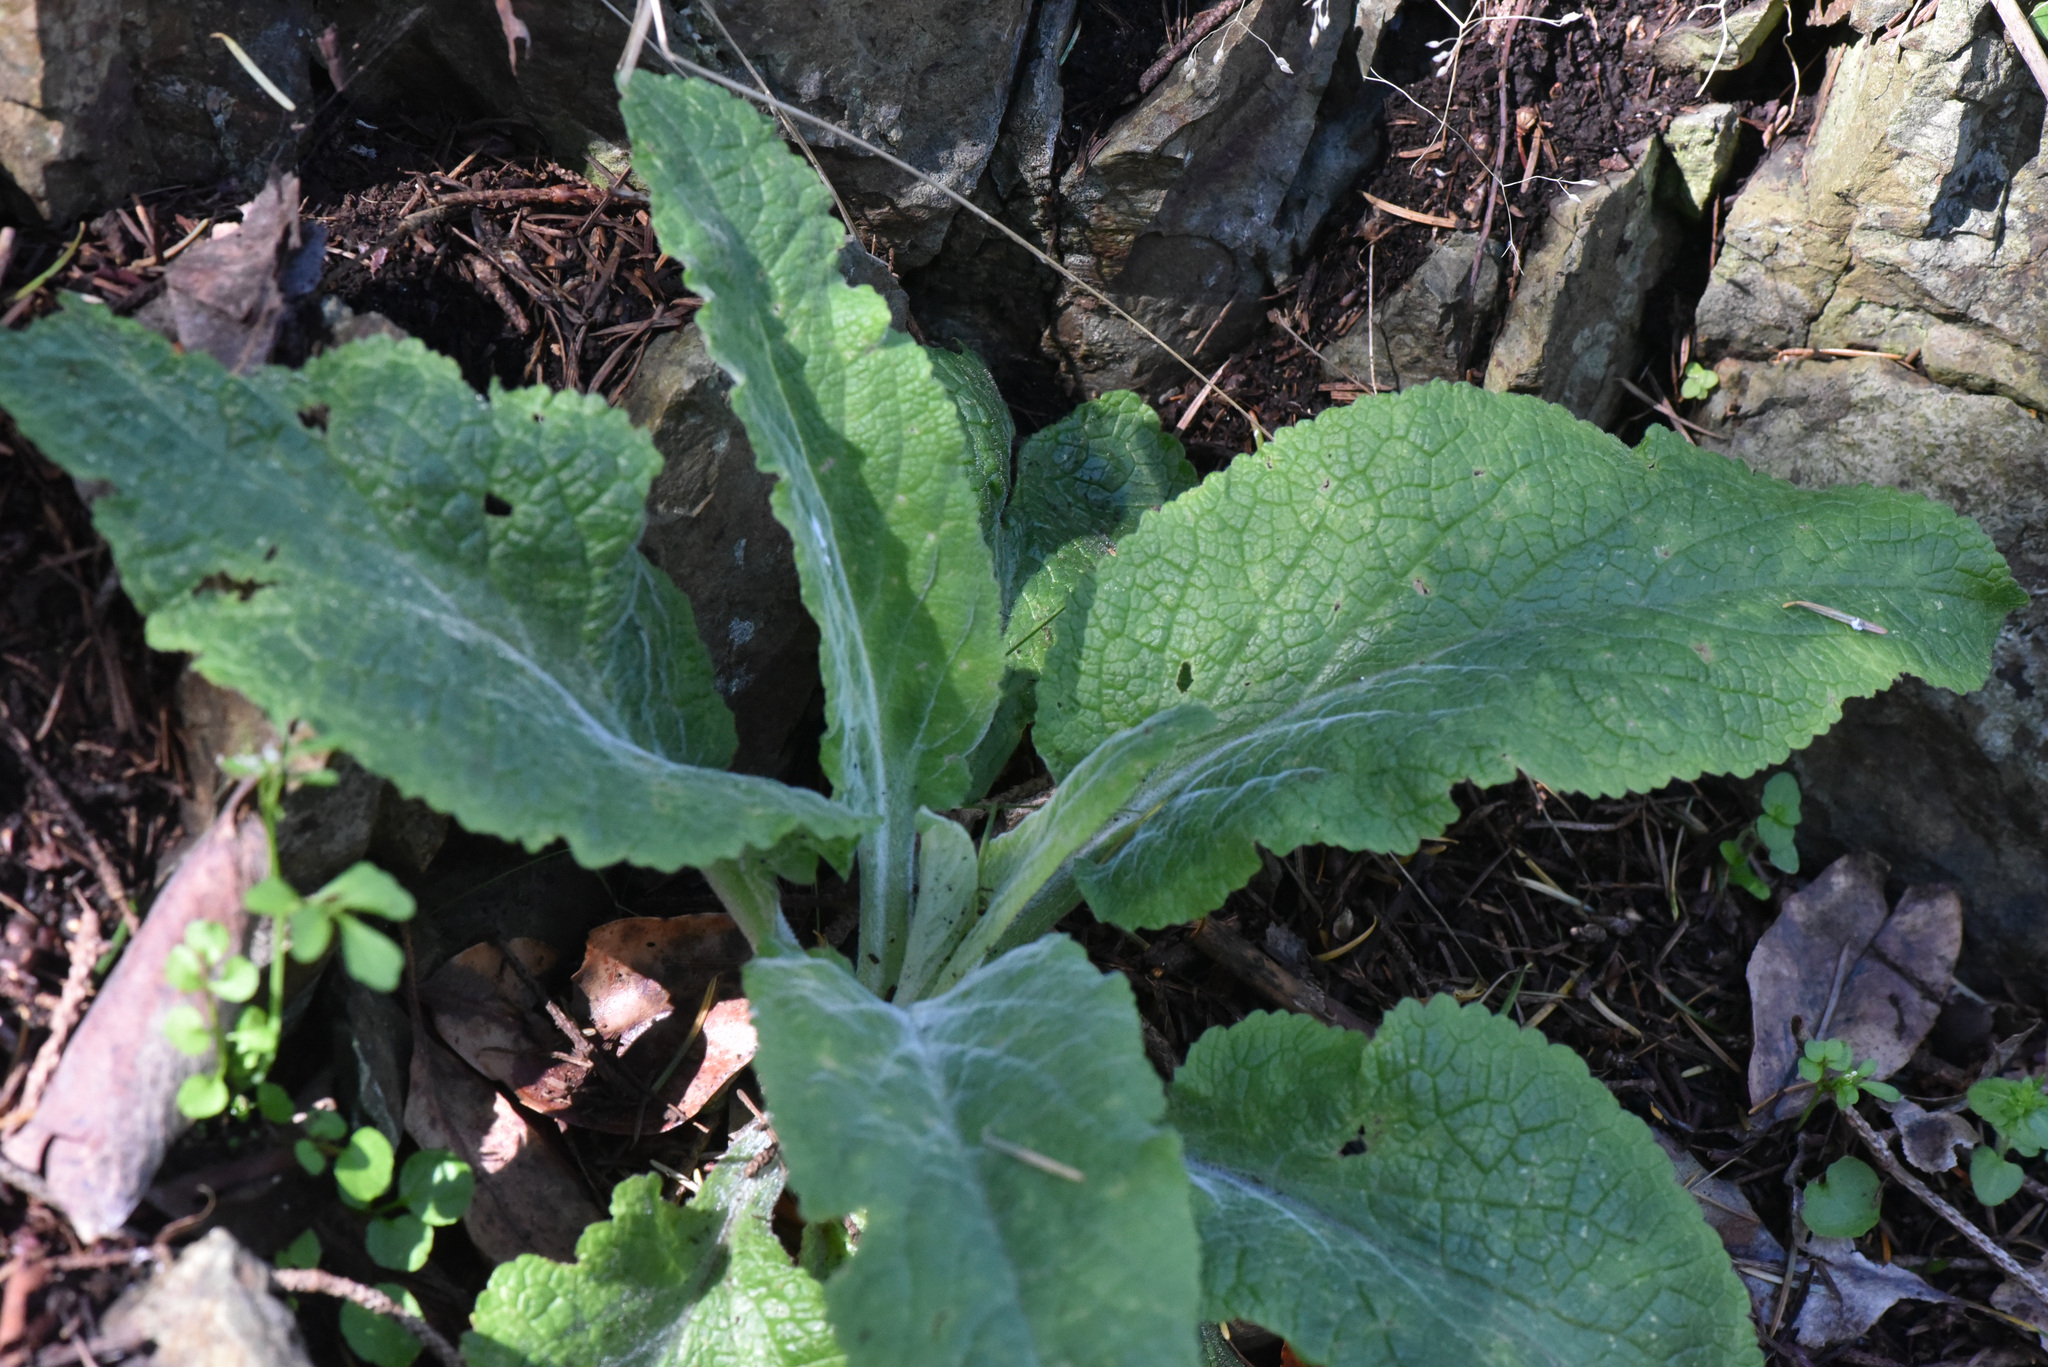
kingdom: Plantae
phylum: Tracheophyta
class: Magnoliopsida
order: Lamiales
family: Plantaginaceae
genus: Digitalis
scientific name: Digitalis purpurea
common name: Foxglove
